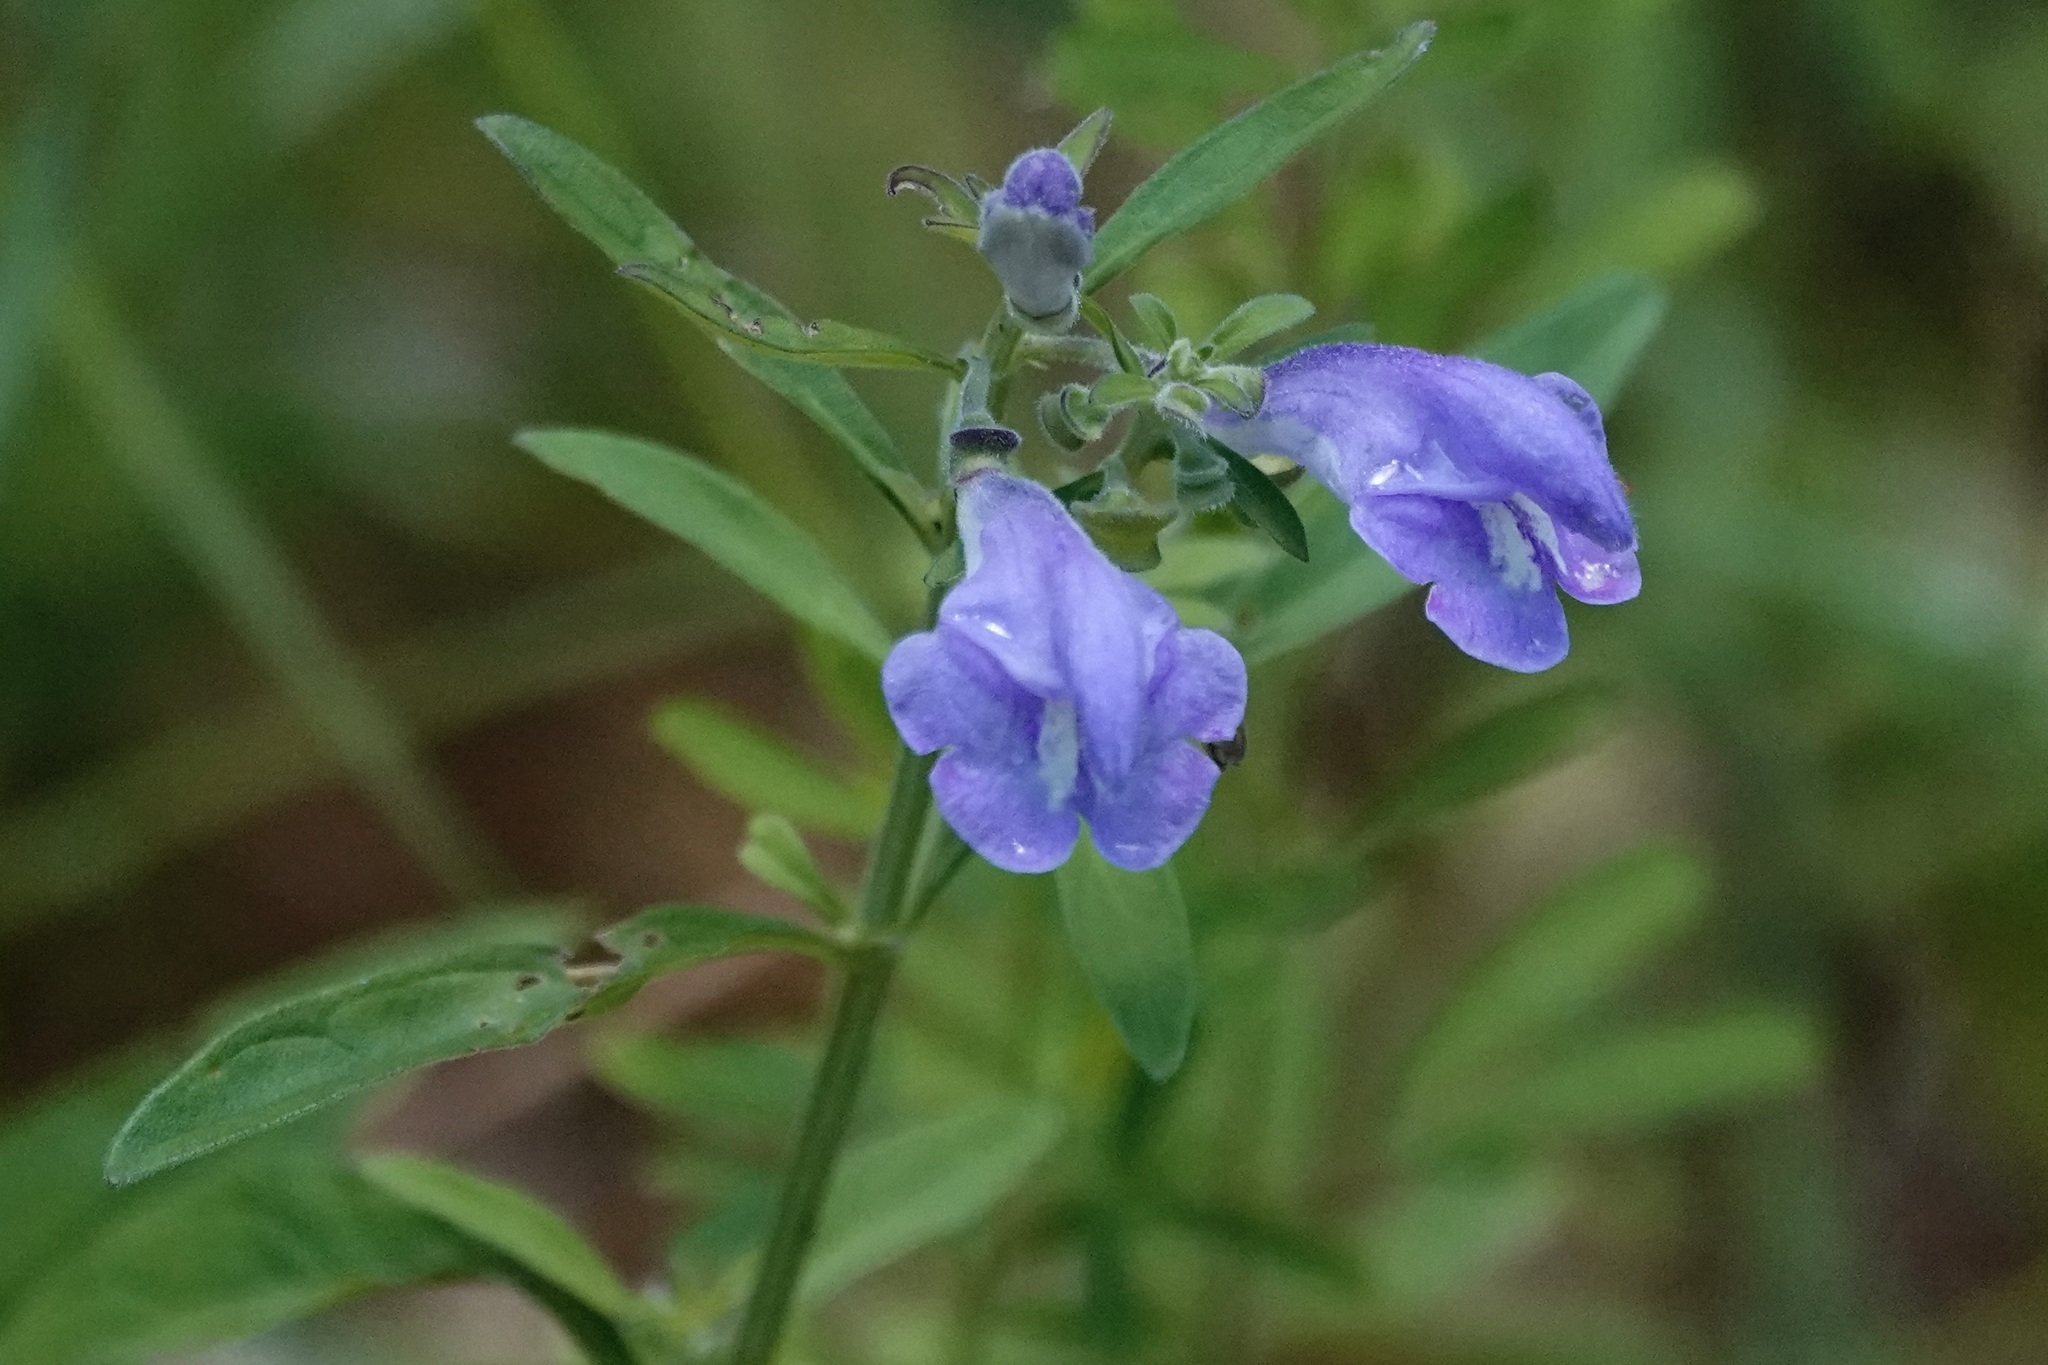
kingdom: Plantae
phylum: Tracheophyta
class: Magnoliopsida
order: Lamiales
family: Lamiaceae
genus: Scutellaria
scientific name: Scutellaria integrifolia
